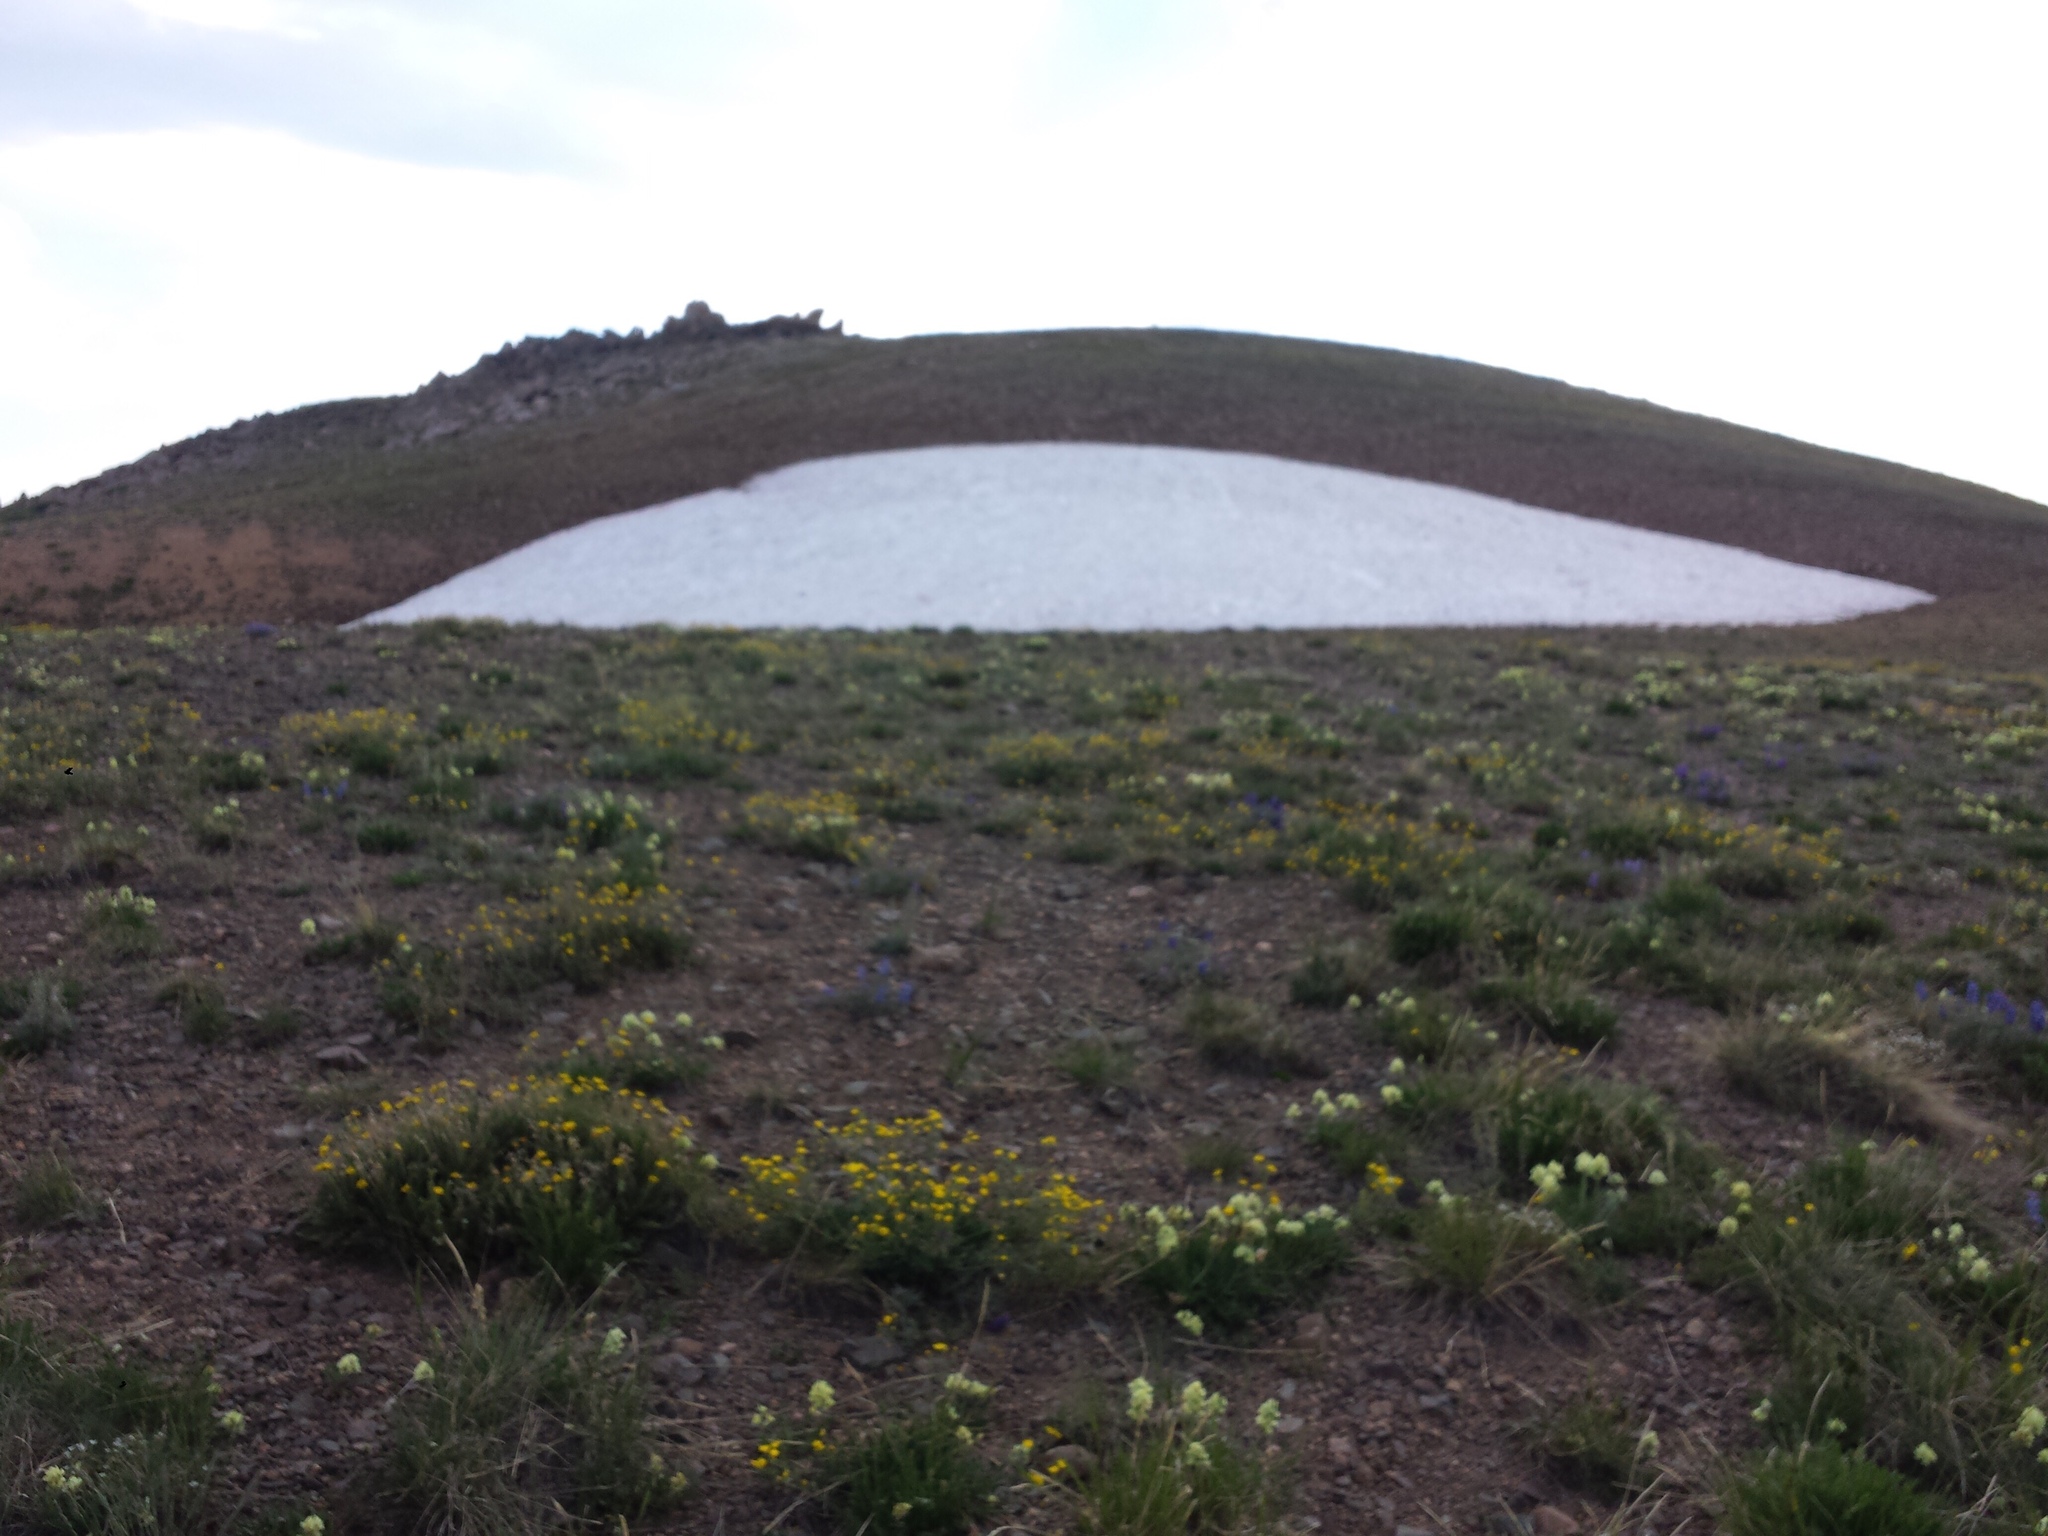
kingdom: Plantae
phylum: Tracheophyta
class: Magnoliopsida
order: Fabales
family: Fabaceae
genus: Oxytropis
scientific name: Oxytropis campestris
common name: Field locoweed
